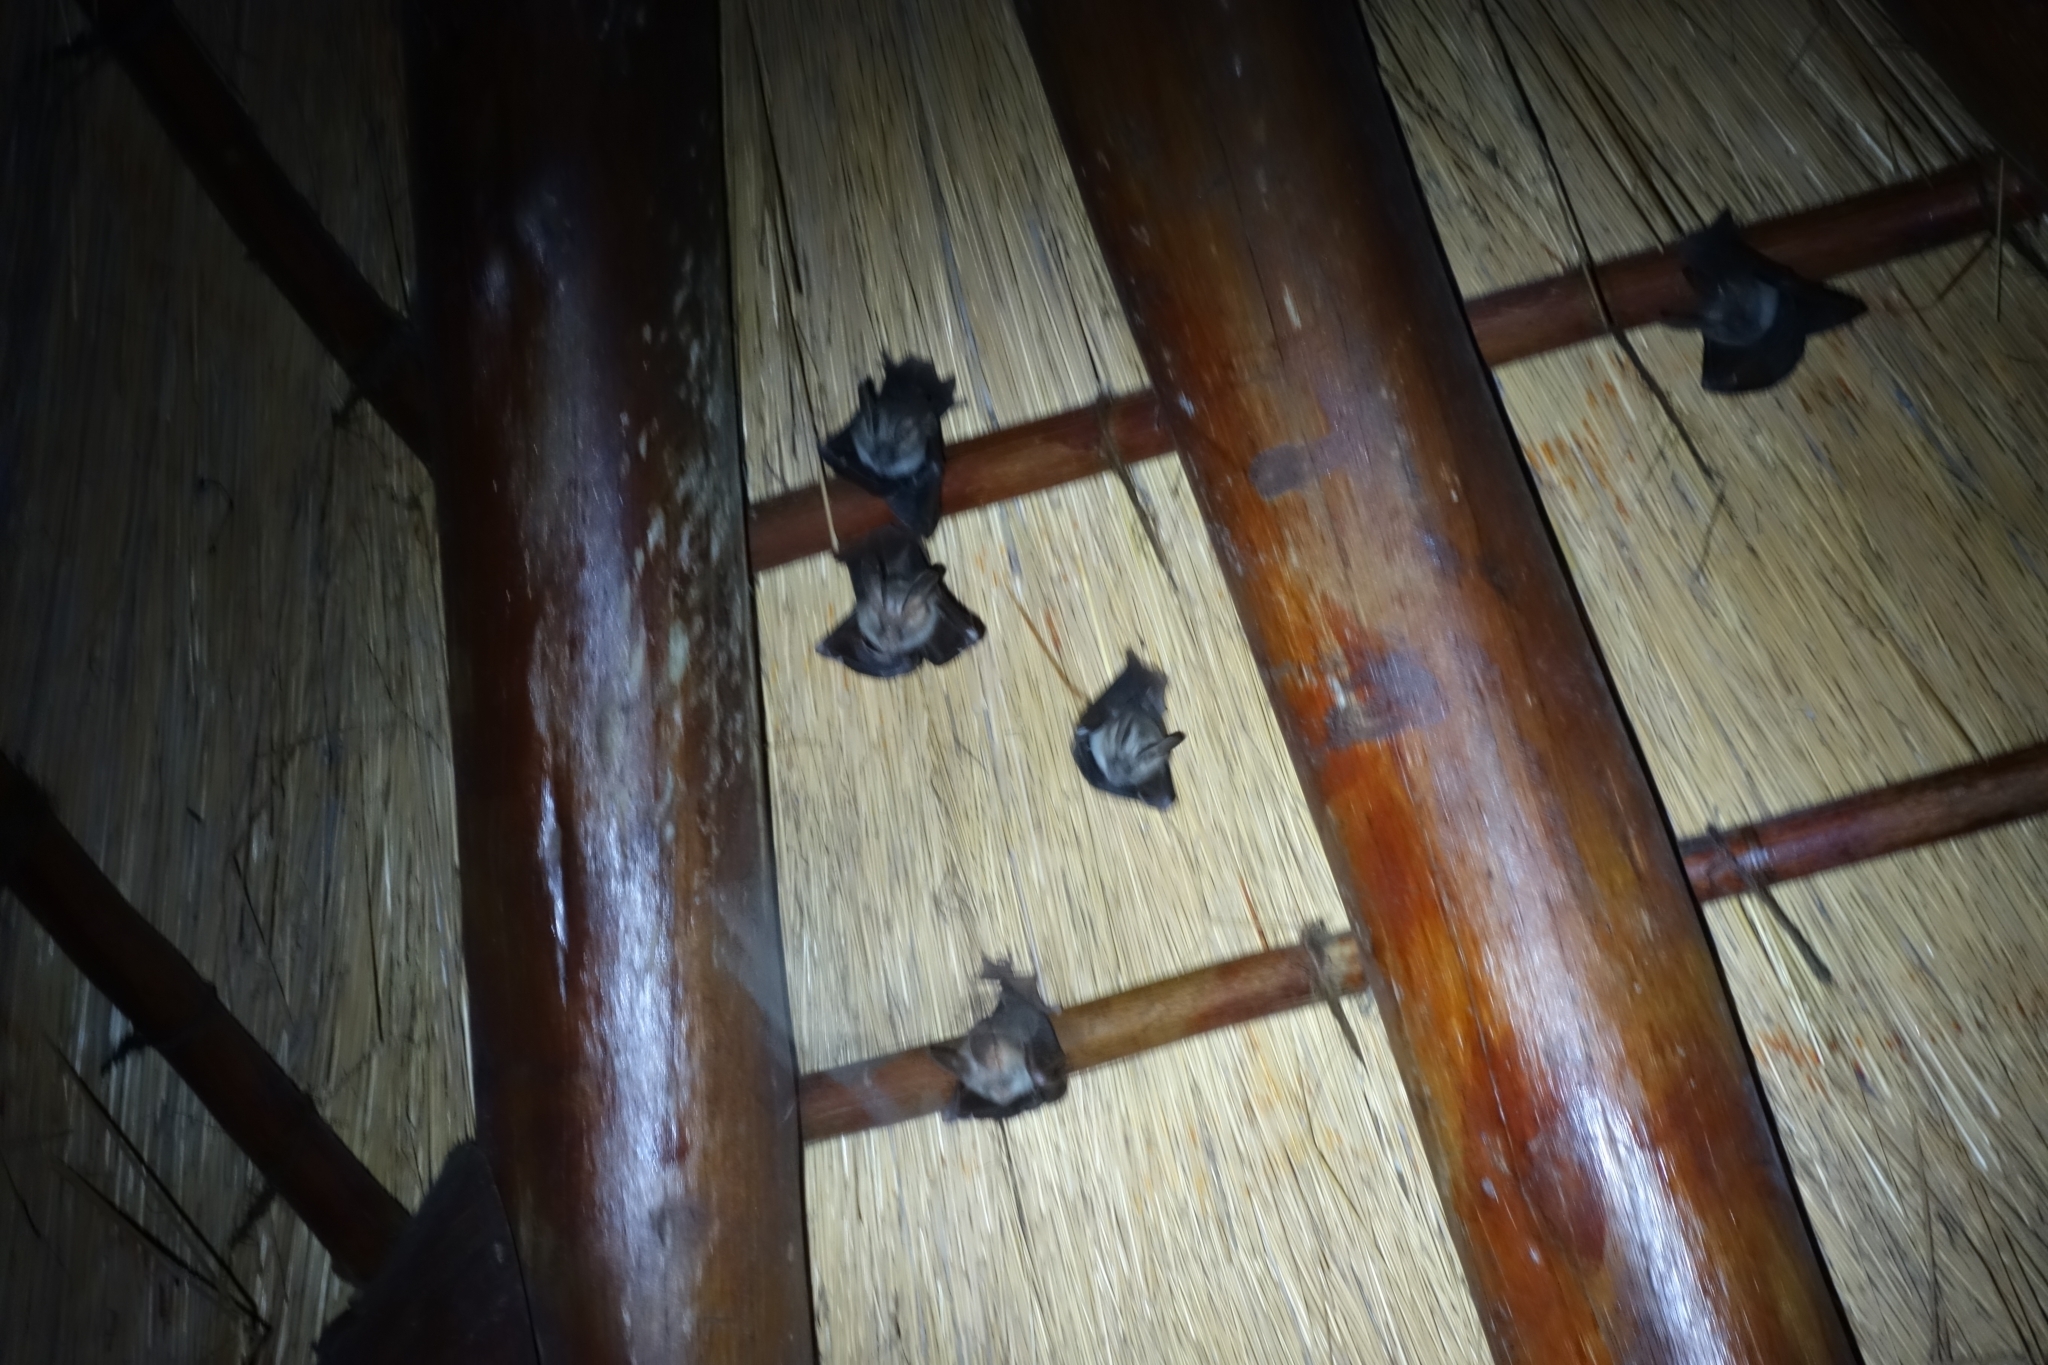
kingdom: Animalia
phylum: Chordata
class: Mammalia
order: Chiroptera
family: Nycteridae
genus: Nycteris
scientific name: Nycteris thebaica
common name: Egyptian slit-faced bat
